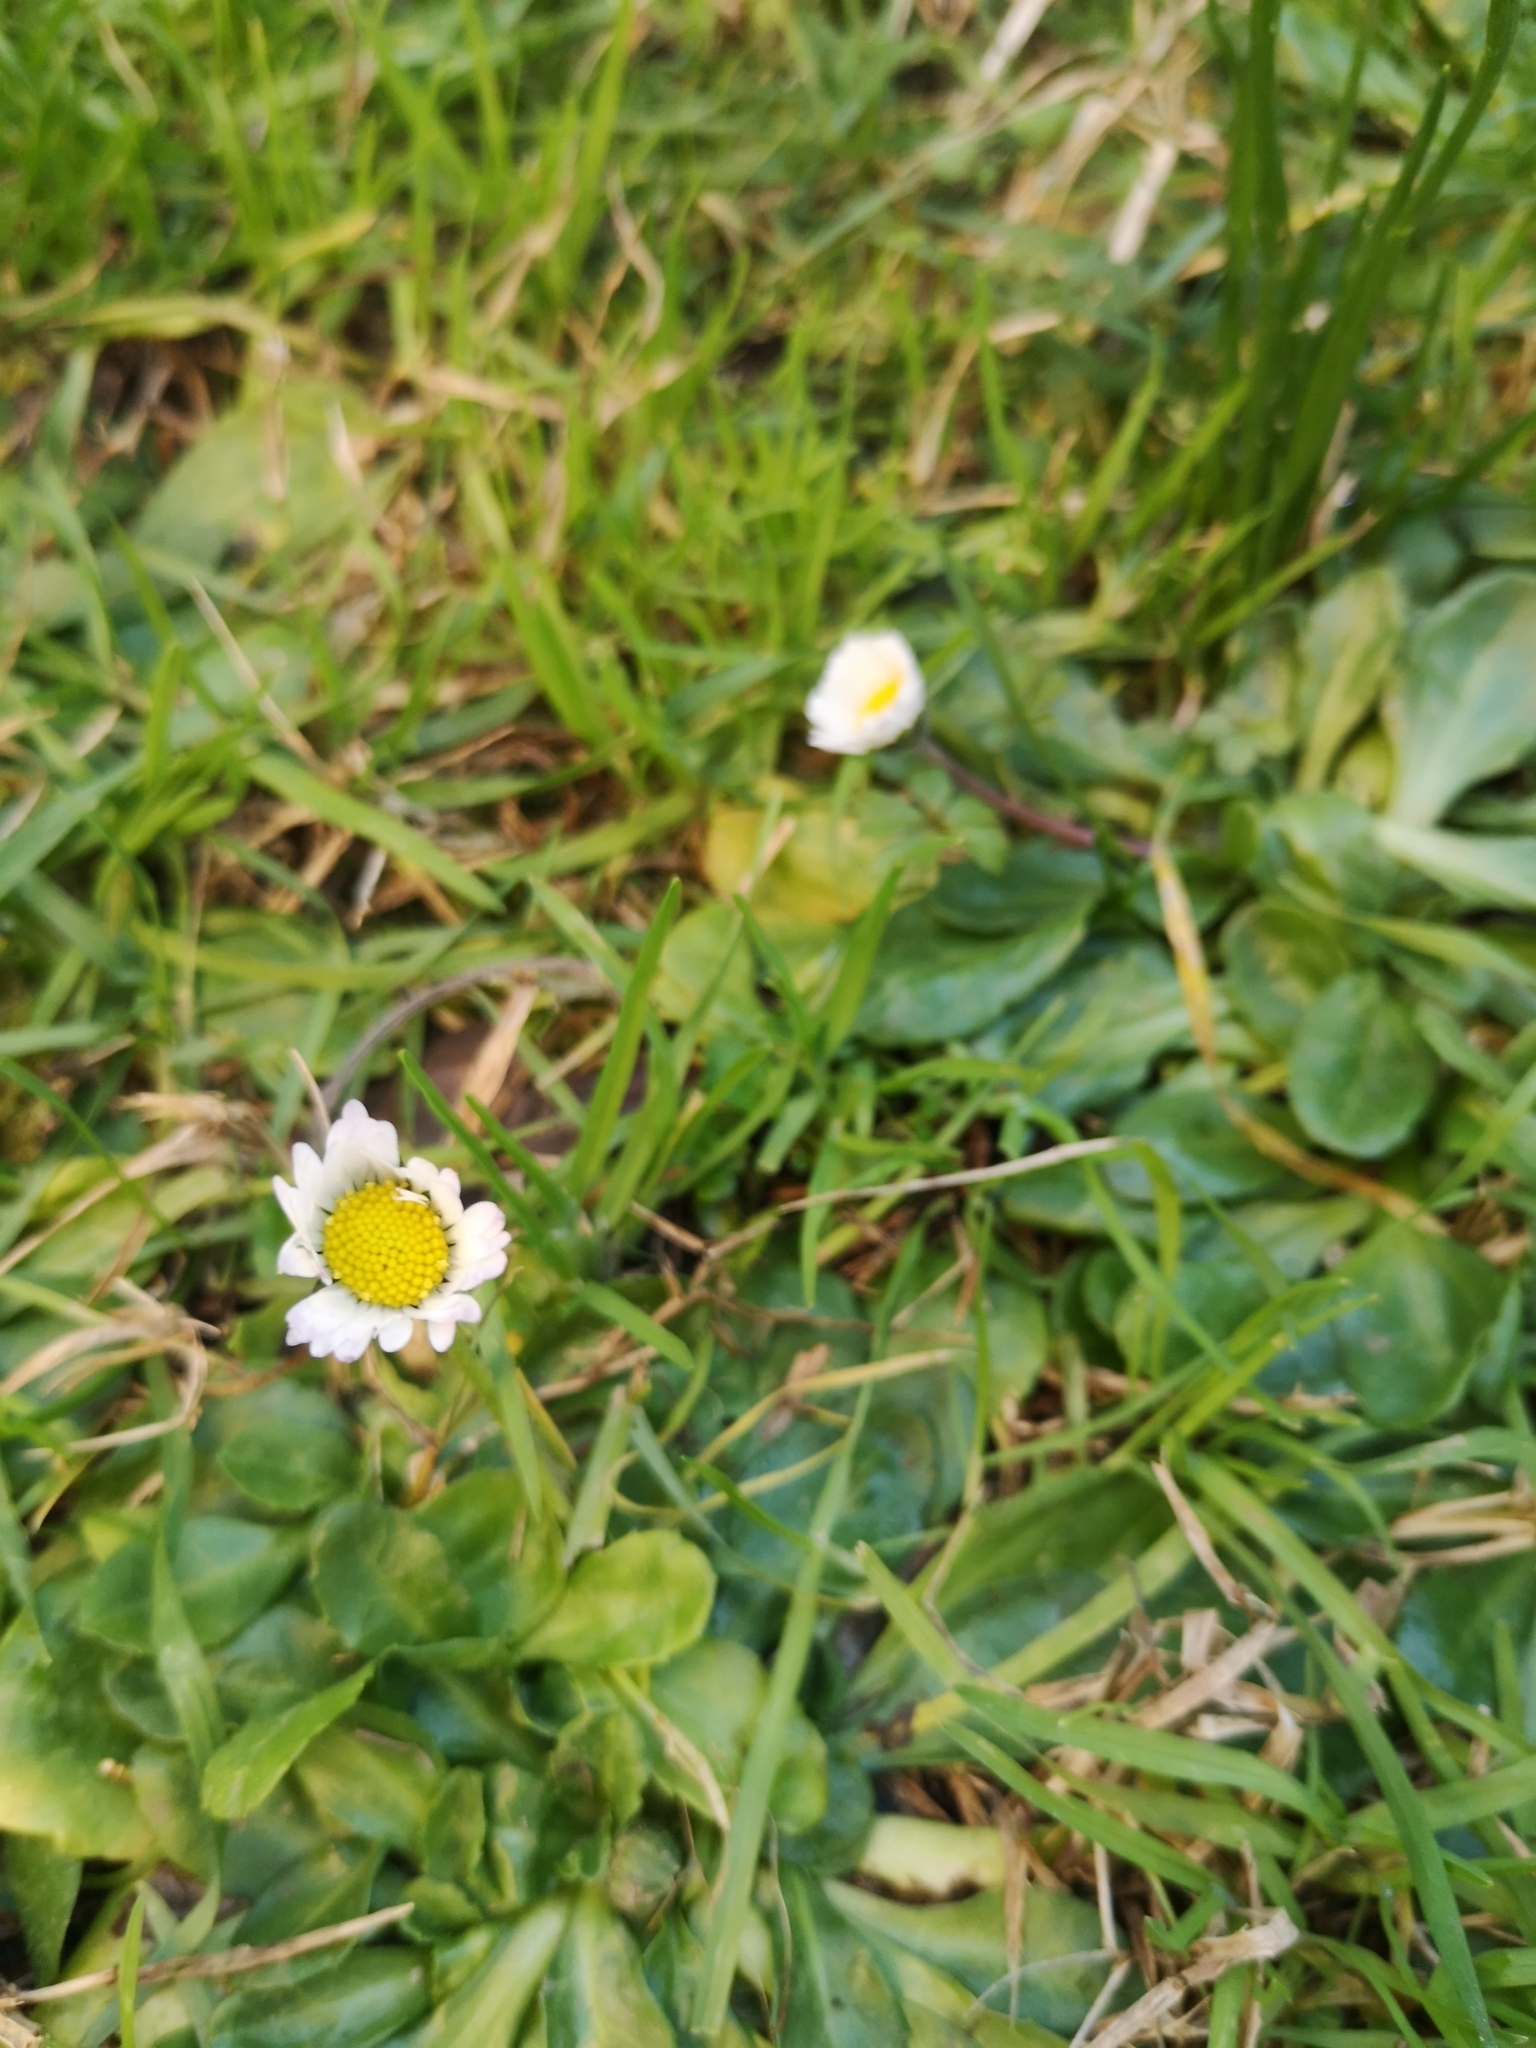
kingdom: Plantae
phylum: Tracheophyta
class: Magnoliopsida
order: Asterales
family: Asteraceae
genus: Bellis
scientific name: Bellis perennis
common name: Lawndaisy
